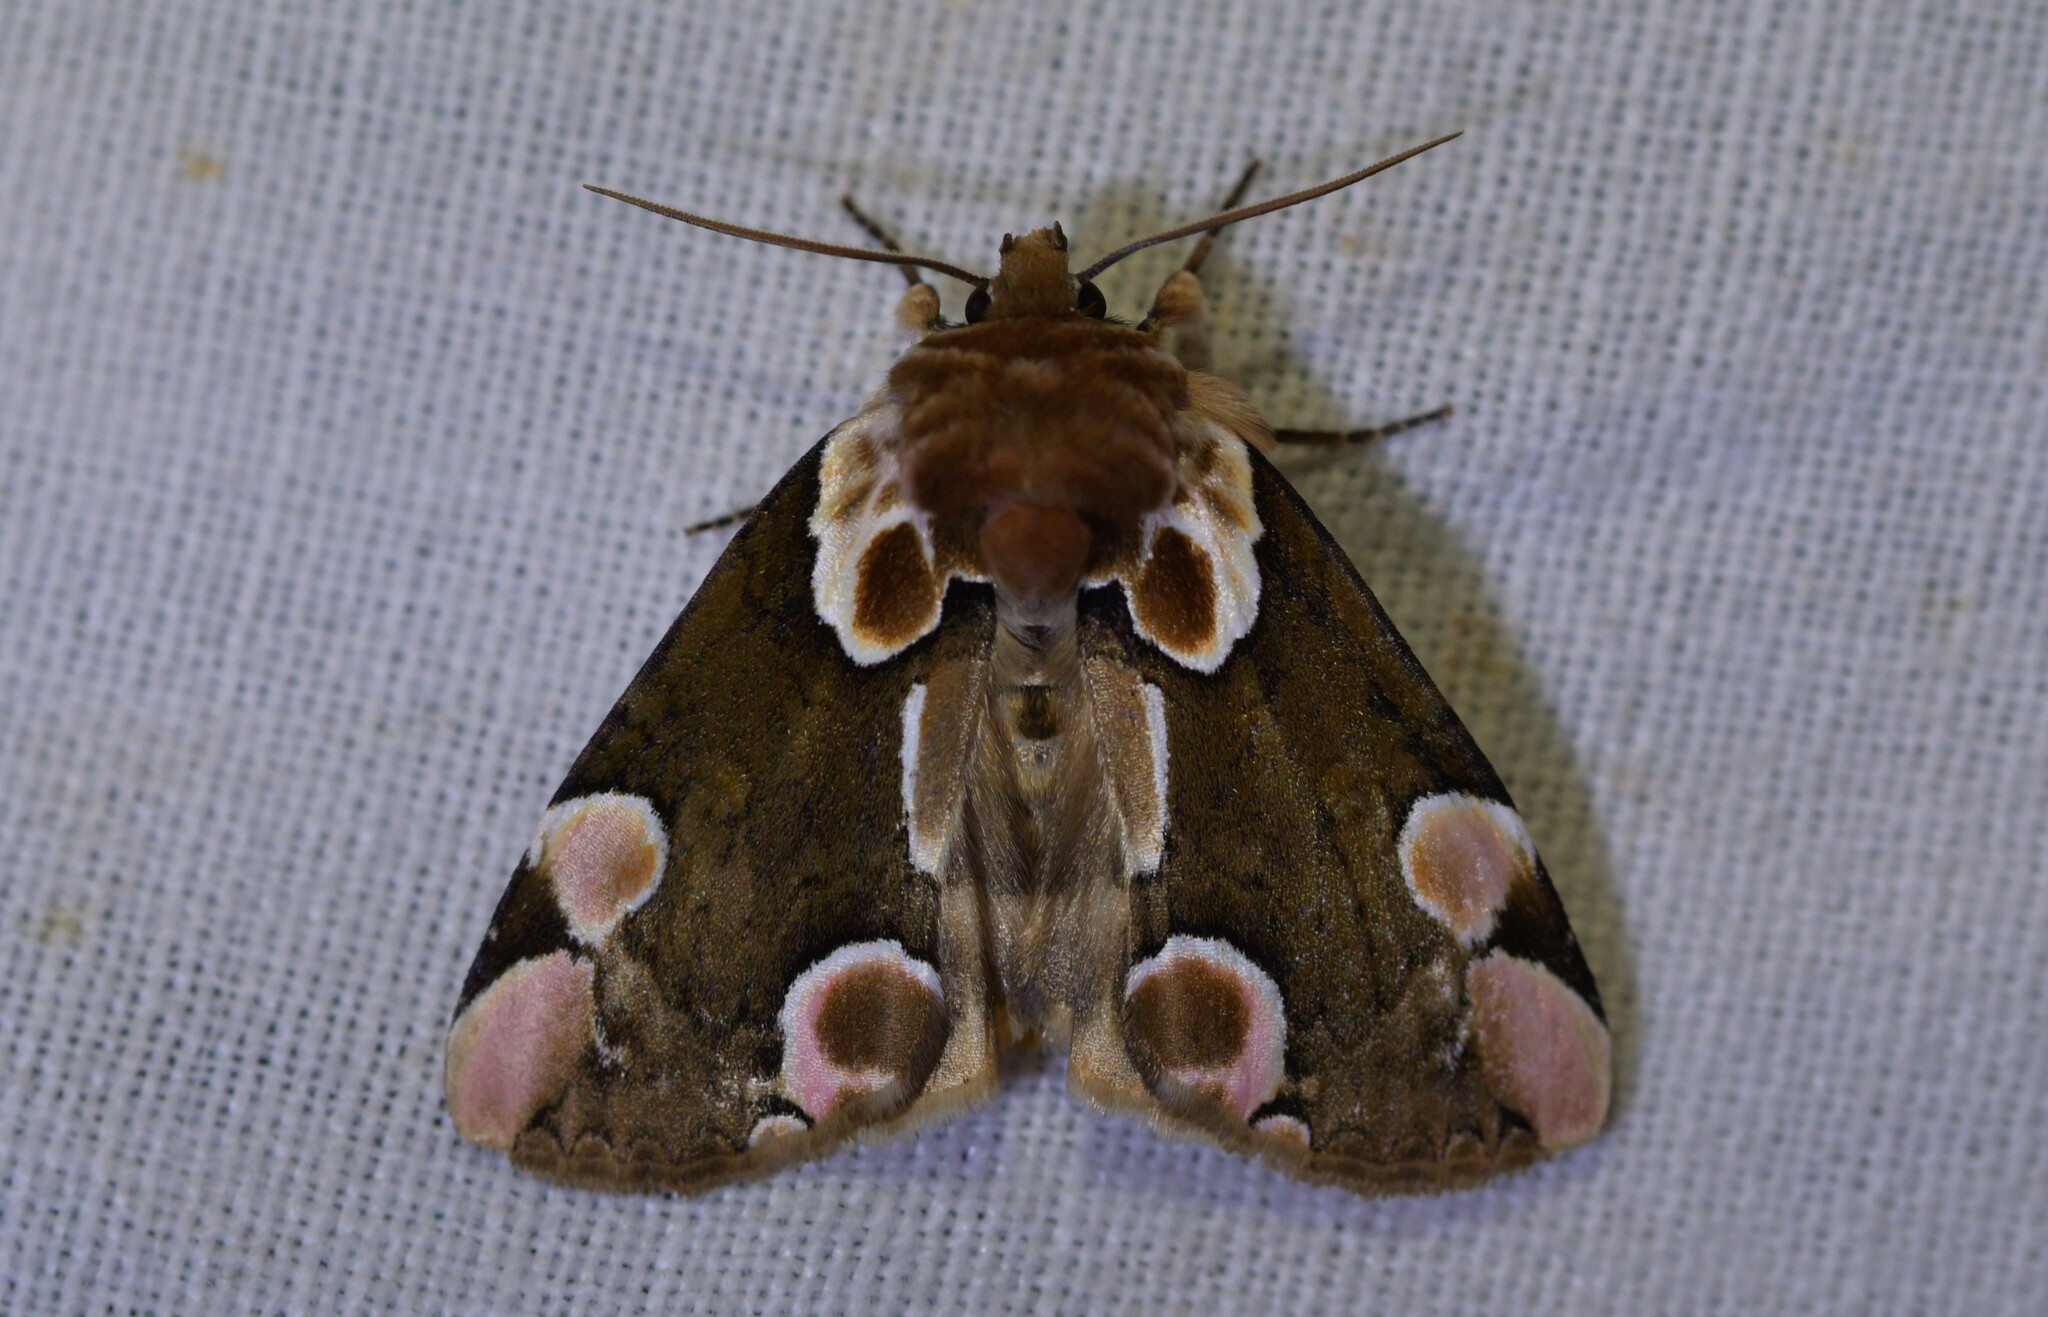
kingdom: Animalia
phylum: Arthropoda
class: Insecta
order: Lepidoptera
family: Drepanidae
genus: Thyatira
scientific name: Thyatira batis
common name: Peach blossom
